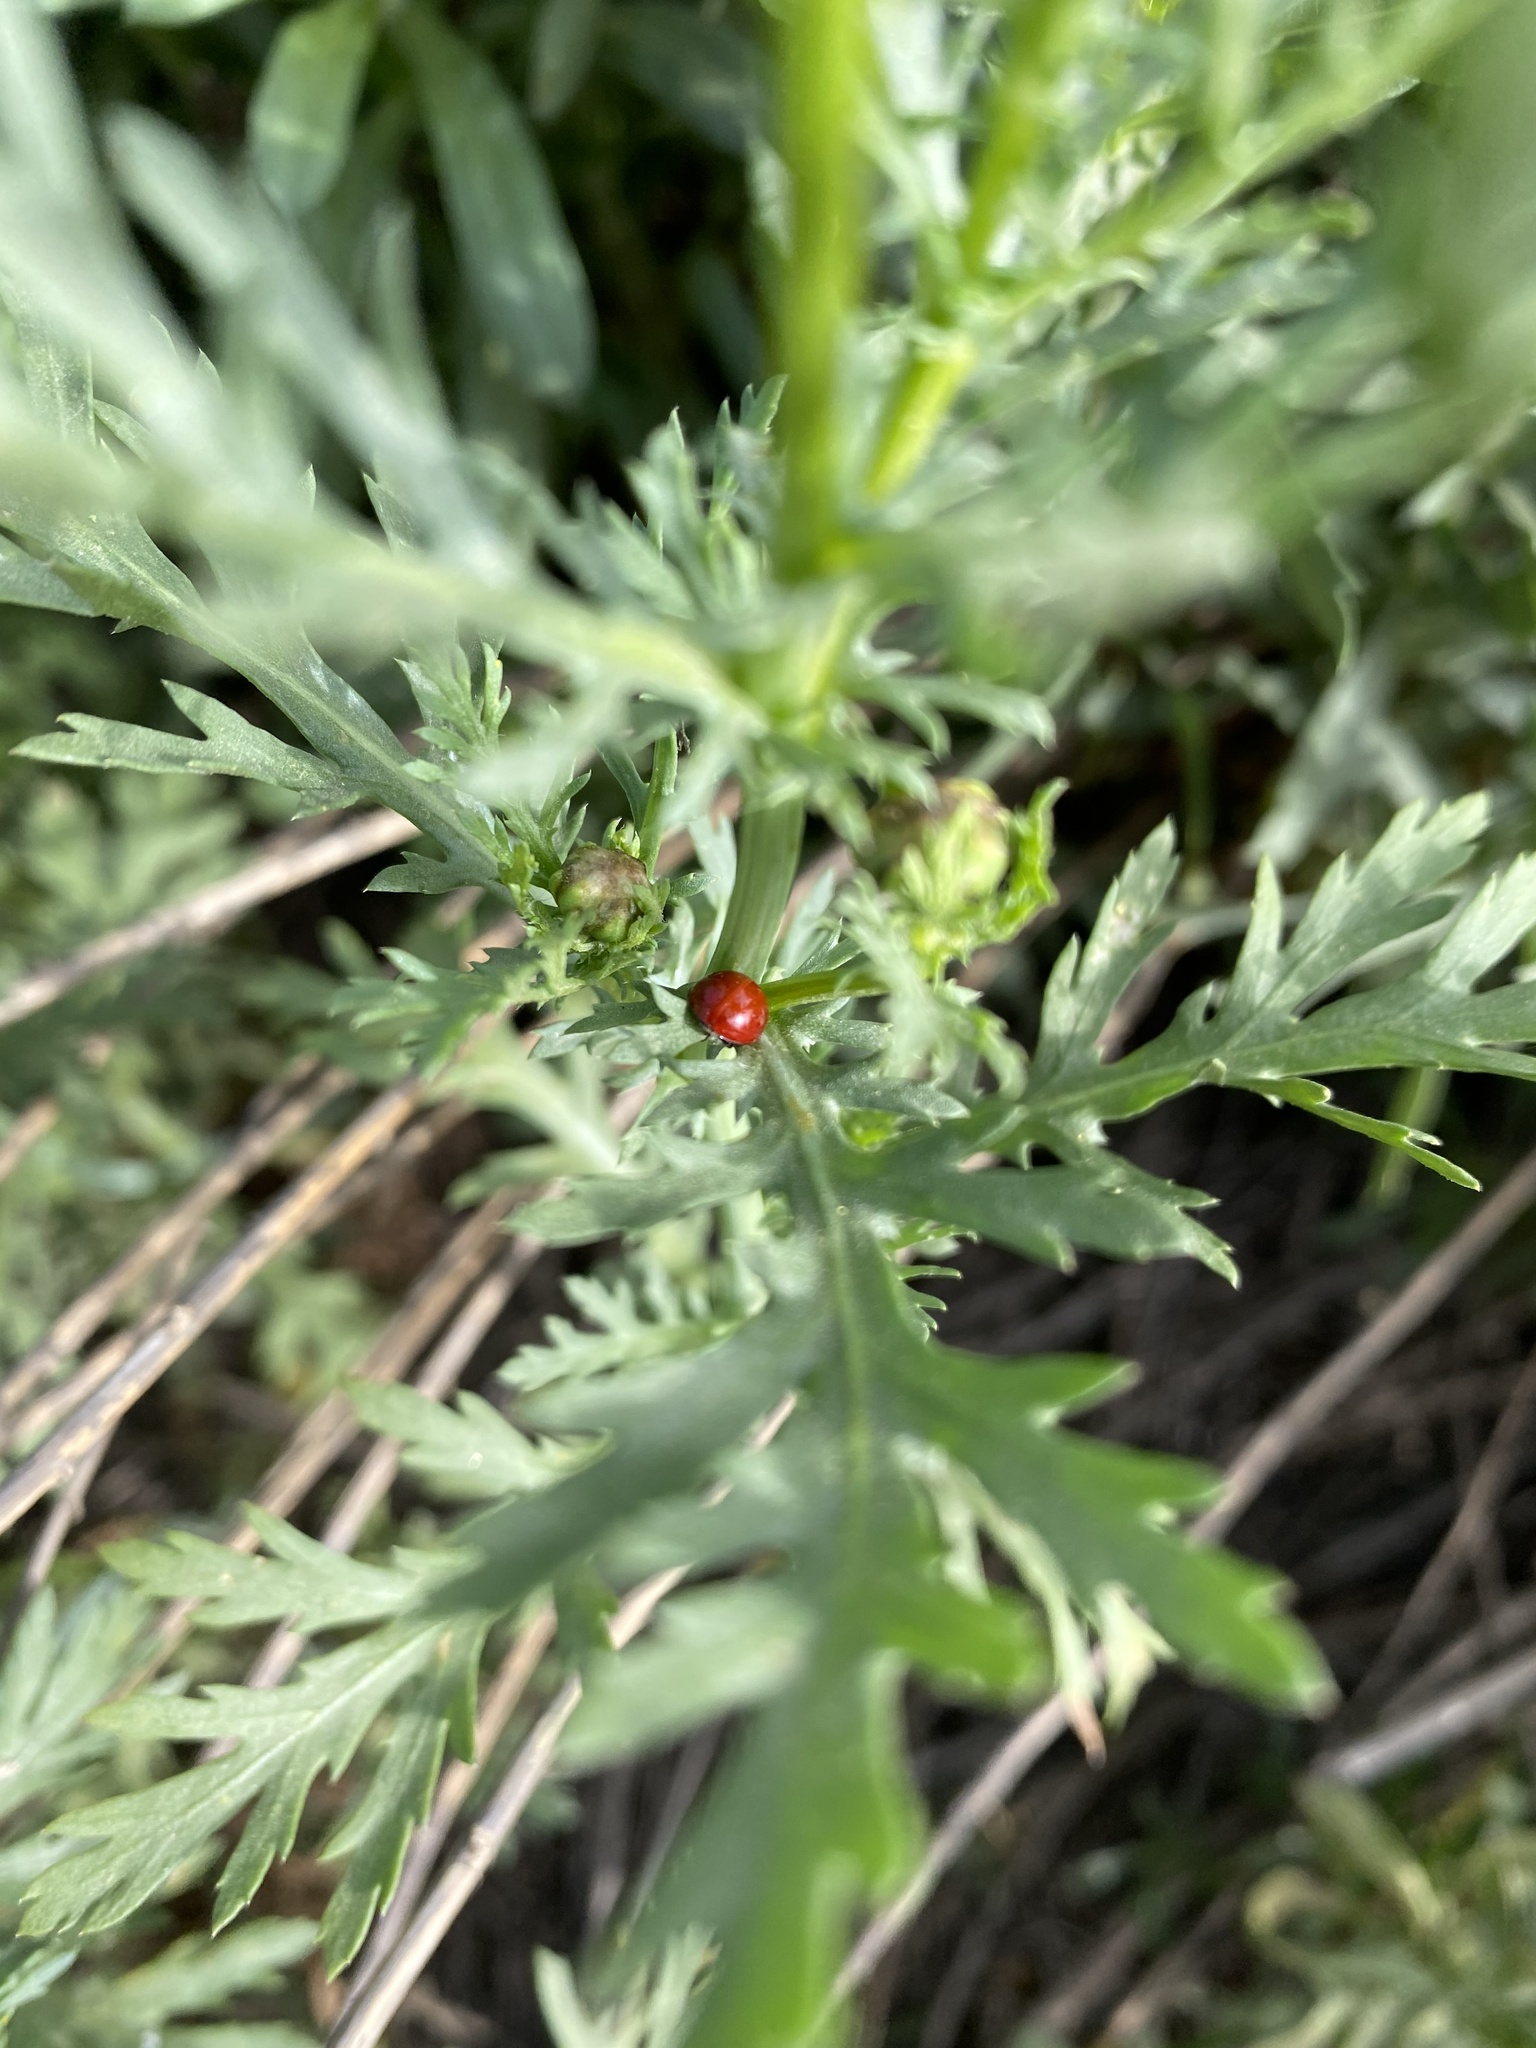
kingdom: Animalia
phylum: Arthropoda
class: Insecta
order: Coleoptera
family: Coccinellidae
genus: Cycloneda
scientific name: Cycloneda sanguinea
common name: Ladybird beetle
